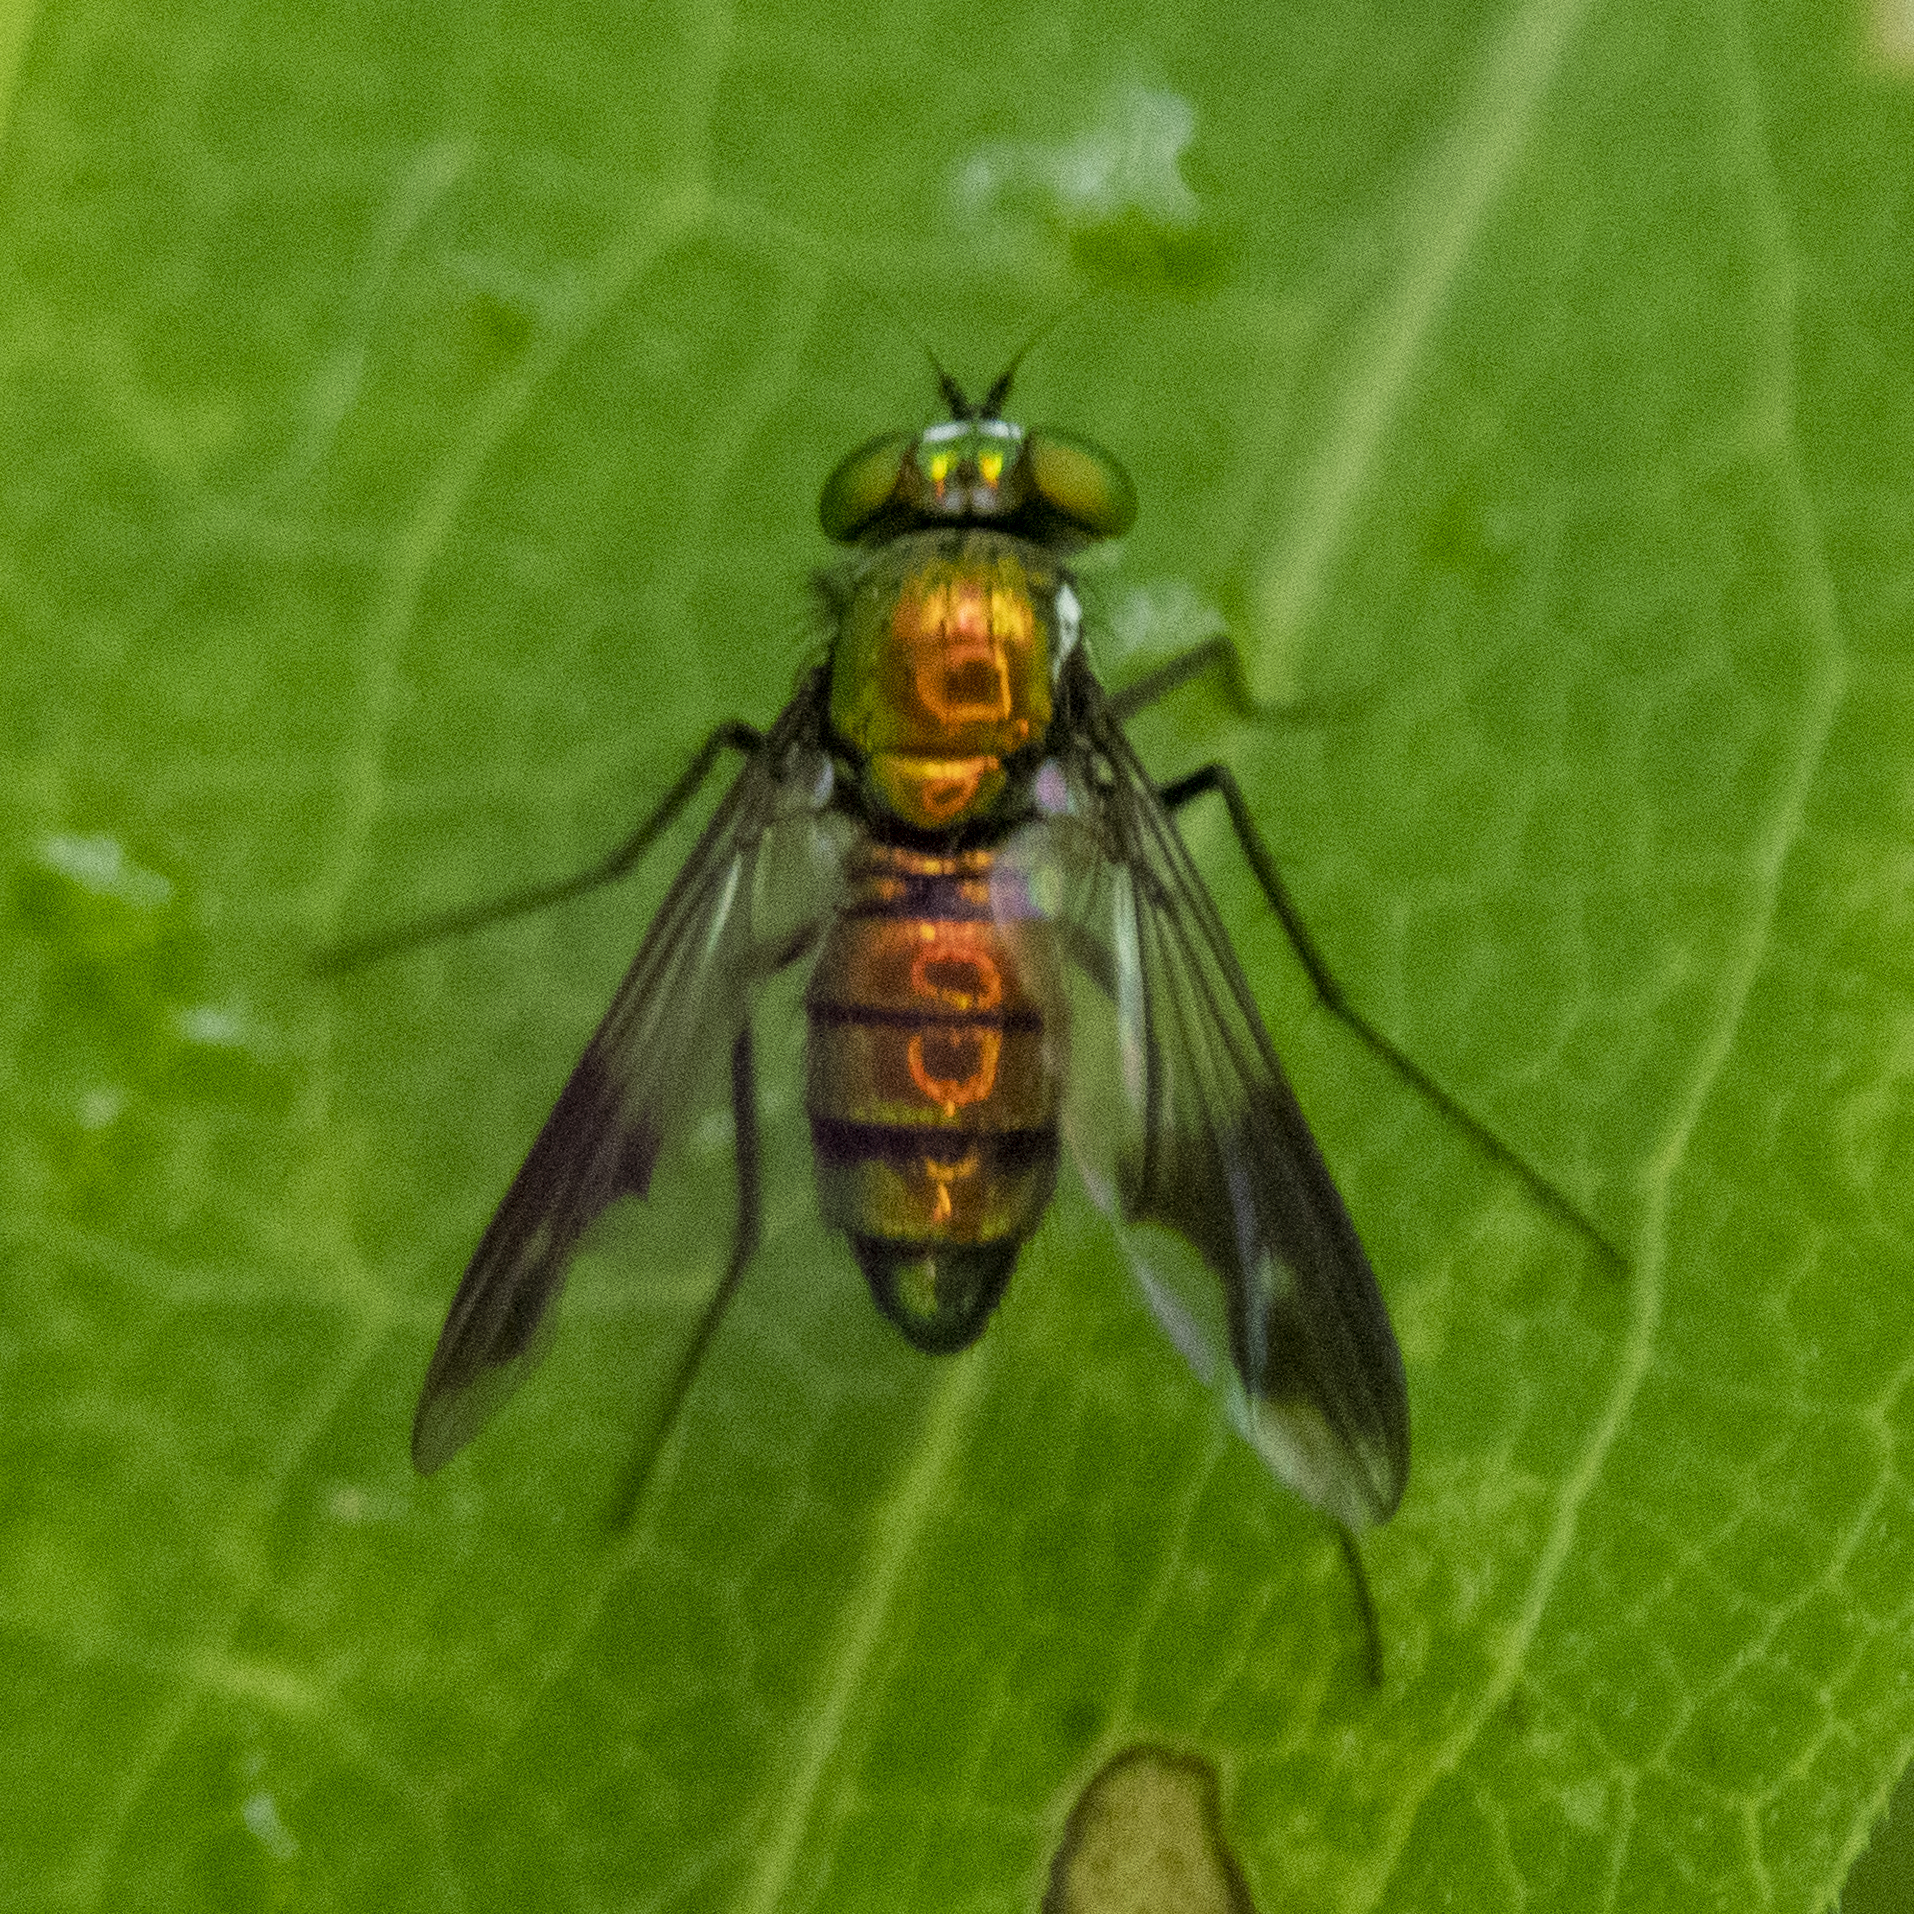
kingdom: Animalia
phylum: Arthropoda
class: Insecta
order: Diptera
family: Dolichopodidae
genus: Condylostylus
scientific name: Condylostylus patibulatus
